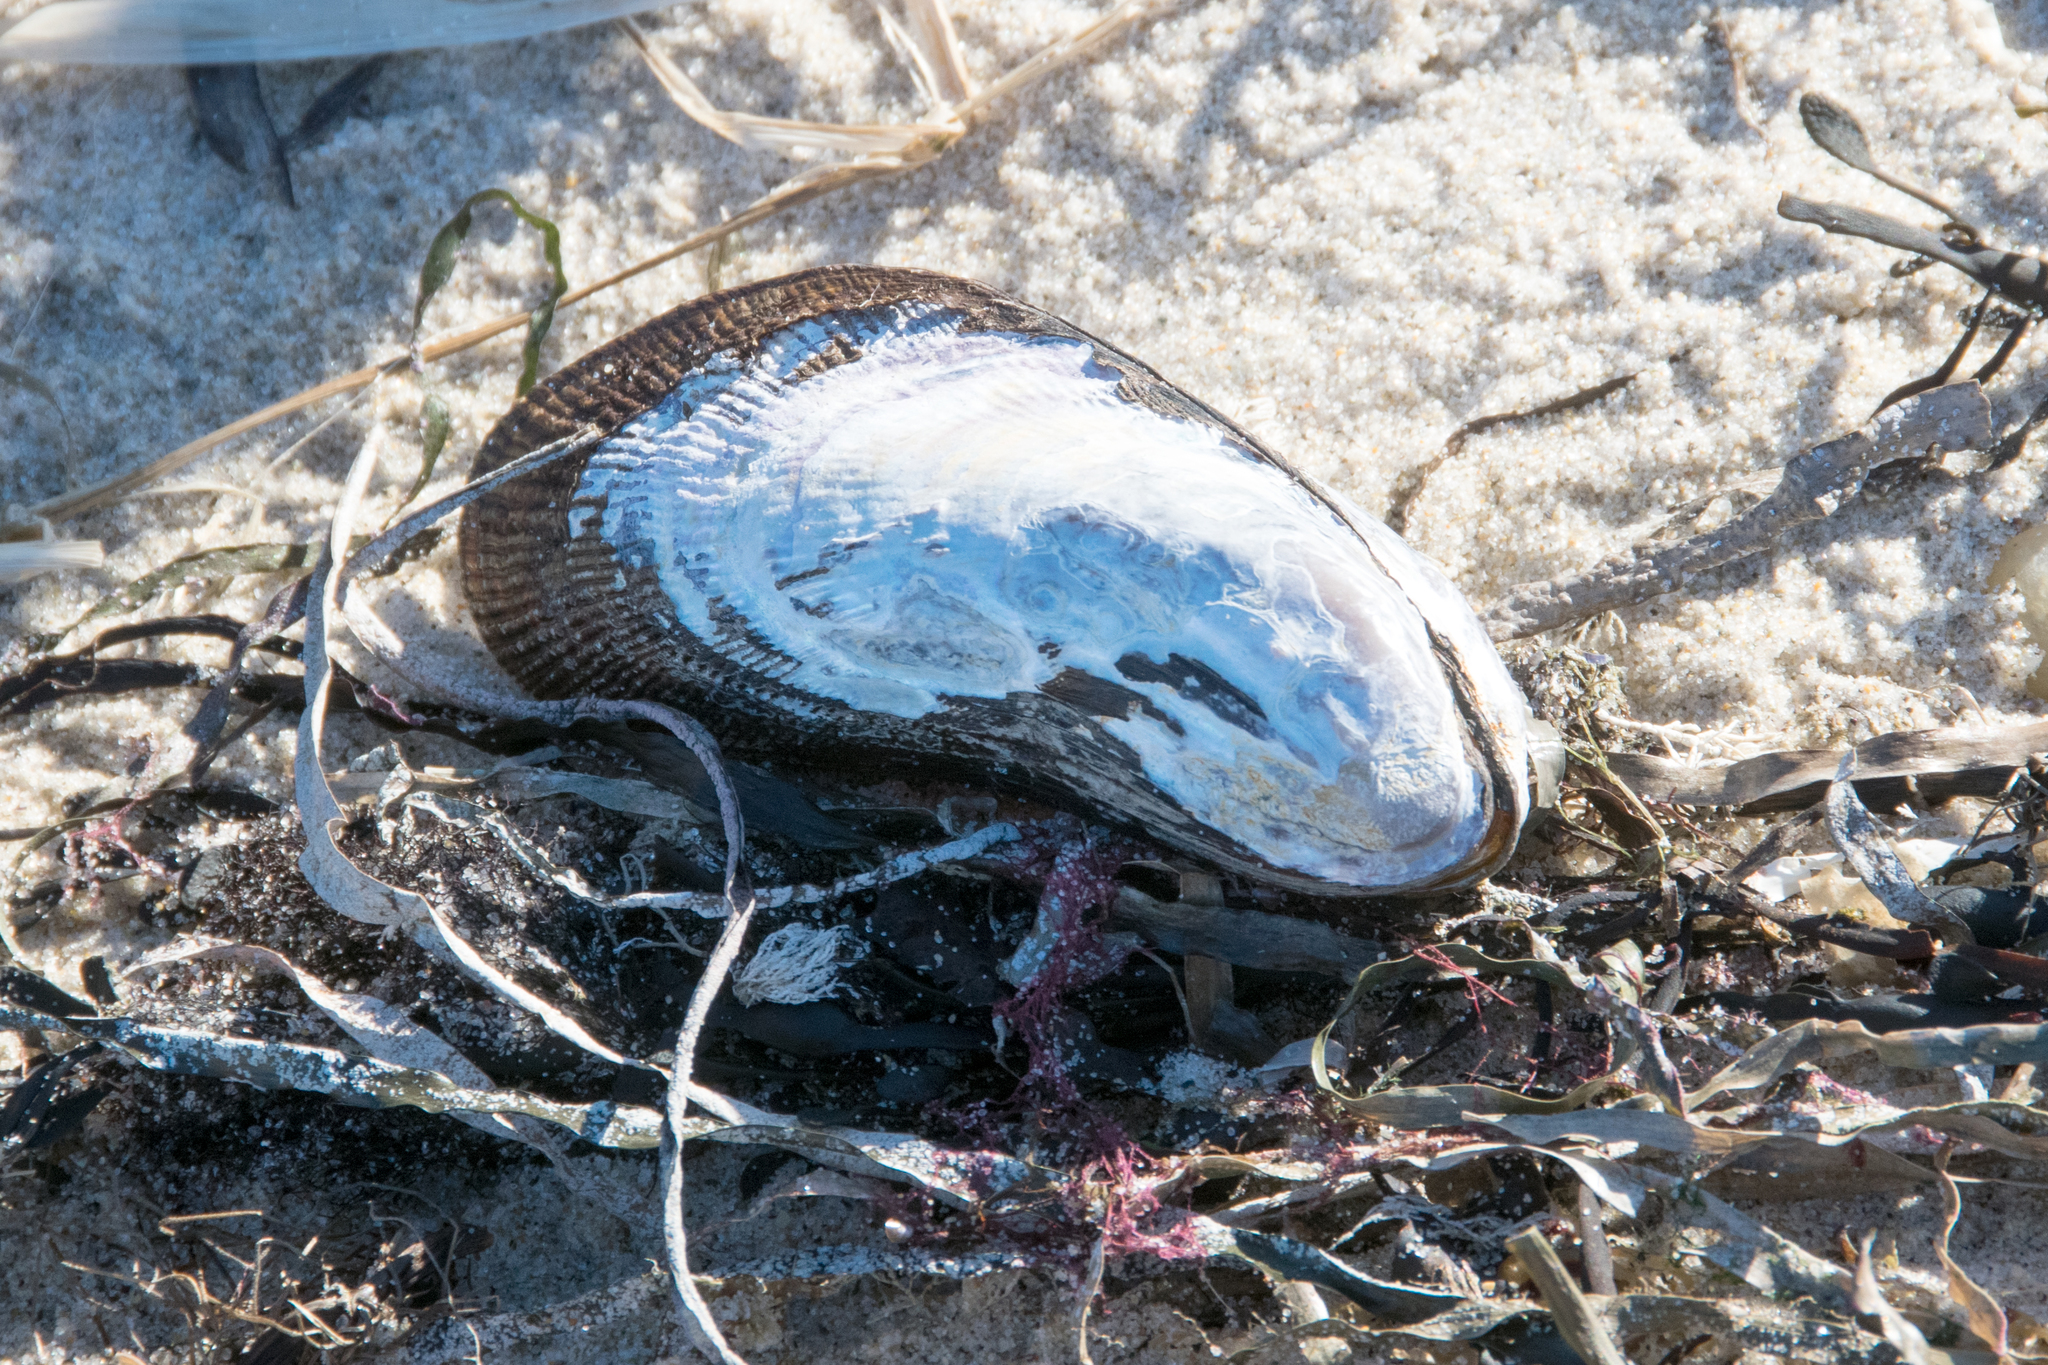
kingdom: Animalia
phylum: Mollusca
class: Bivalvia
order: Mytilida
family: Mytilidae
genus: Geukensia
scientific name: Geukensia demissa
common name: Ribbed mussel
